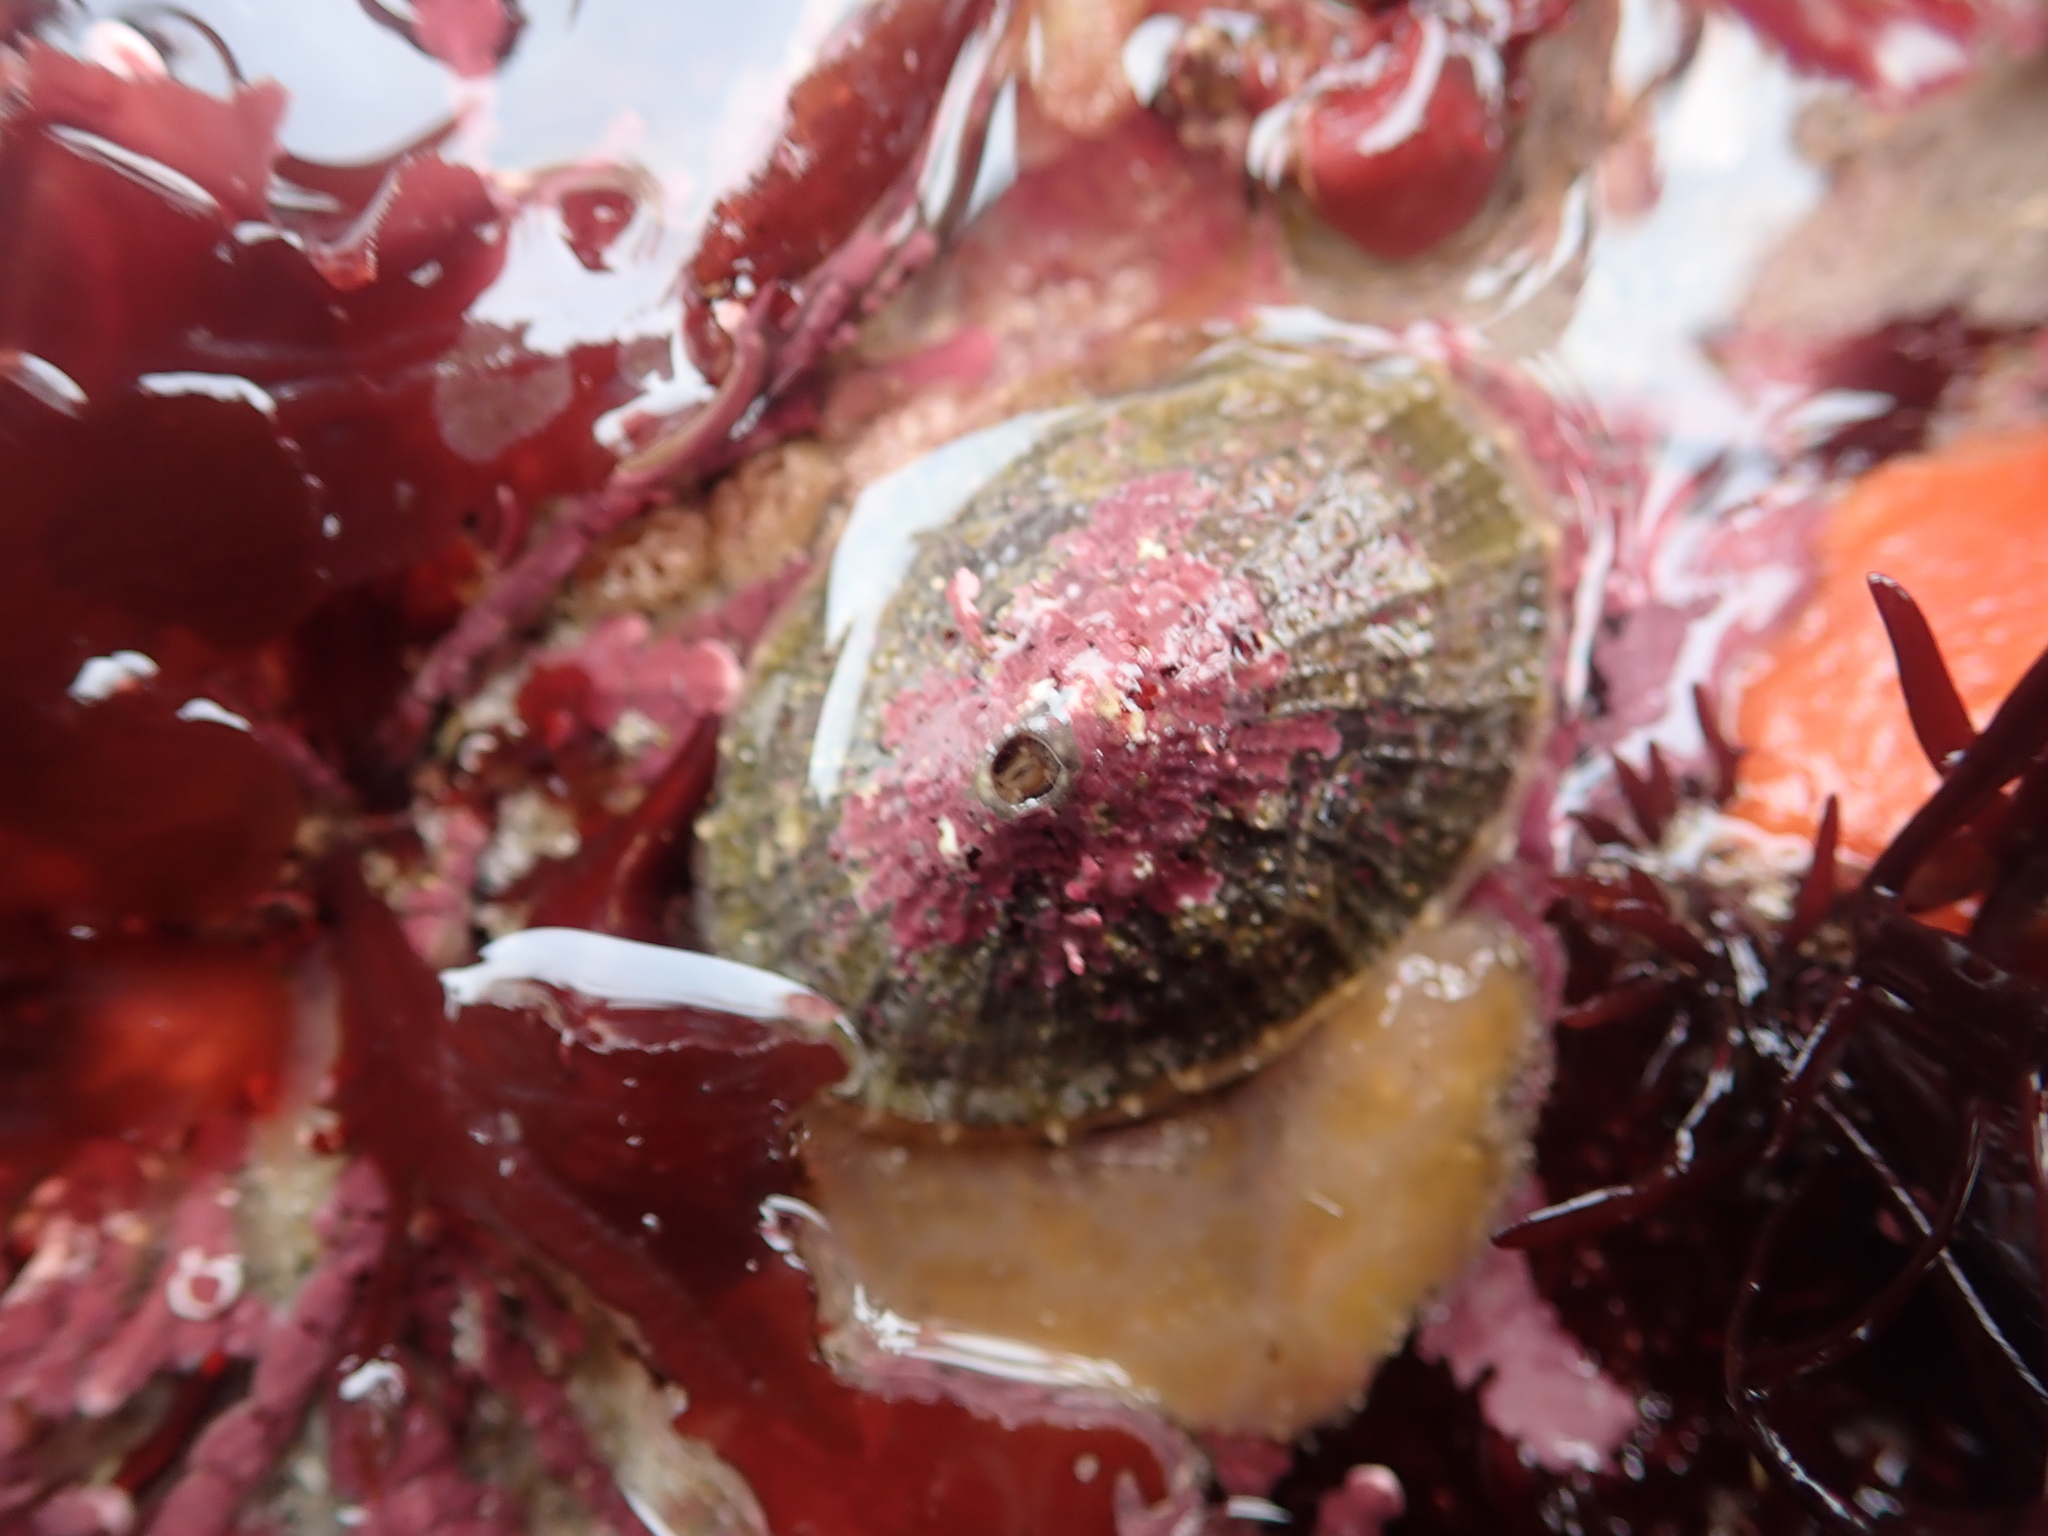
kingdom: Animalia
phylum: Mollusca
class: Gastropoda
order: Lepetellida
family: Fissurellidae
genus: Diodora
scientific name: Diodora aspera
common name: Rough keyhole limpet
